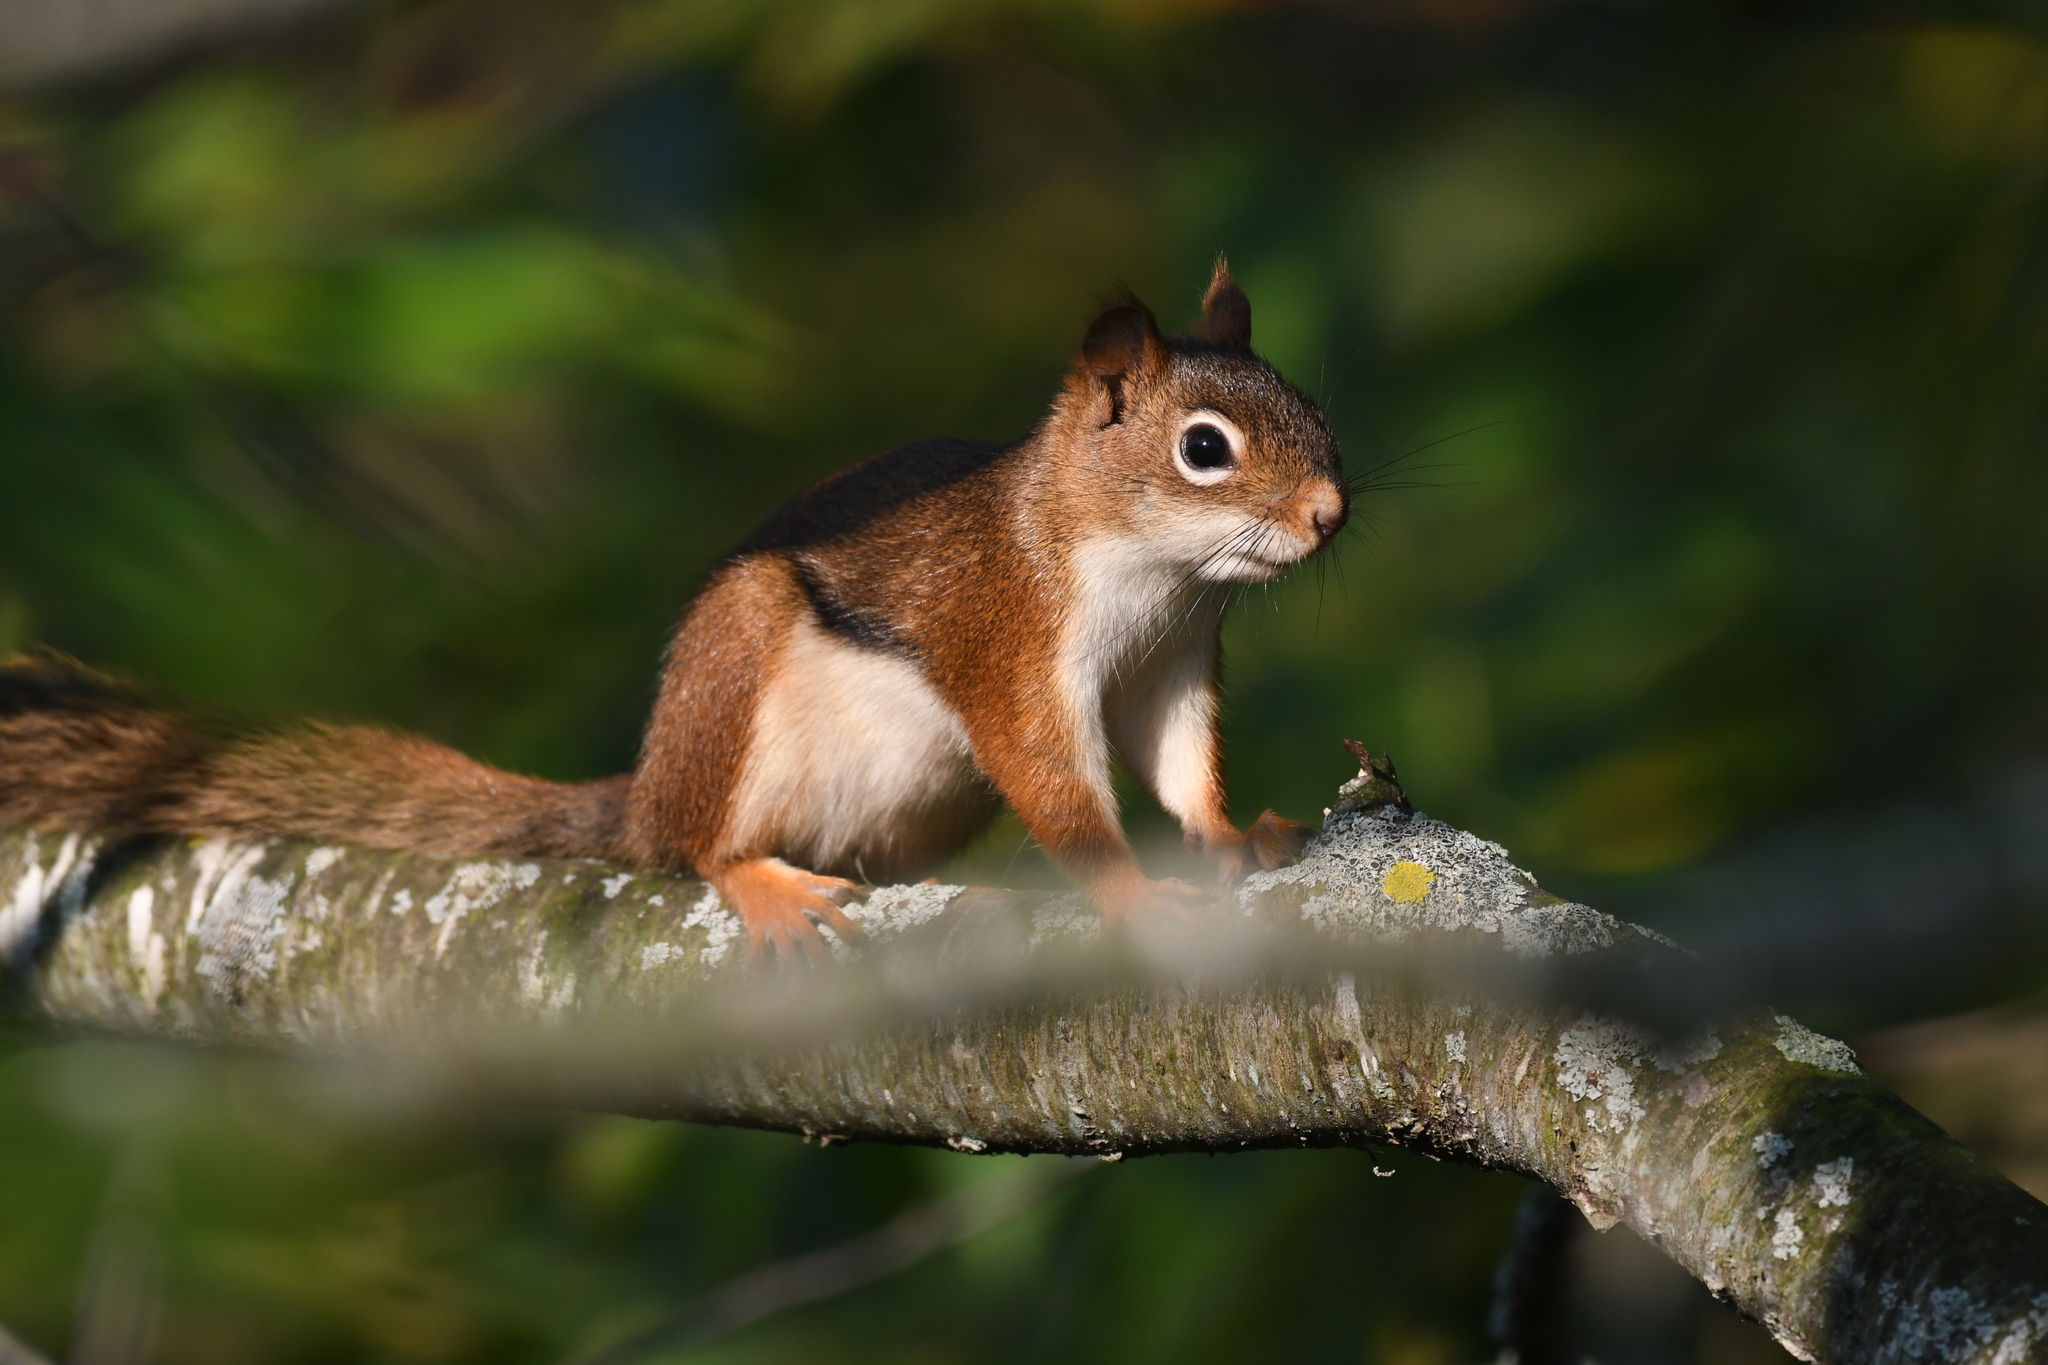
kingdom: Animalia
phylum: Chordata
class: Mammalia
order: Rodentia
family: Sciuridae
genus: Tamiasciurus
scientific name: Tamiasciurus hudsonicus
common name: Red squirrel
